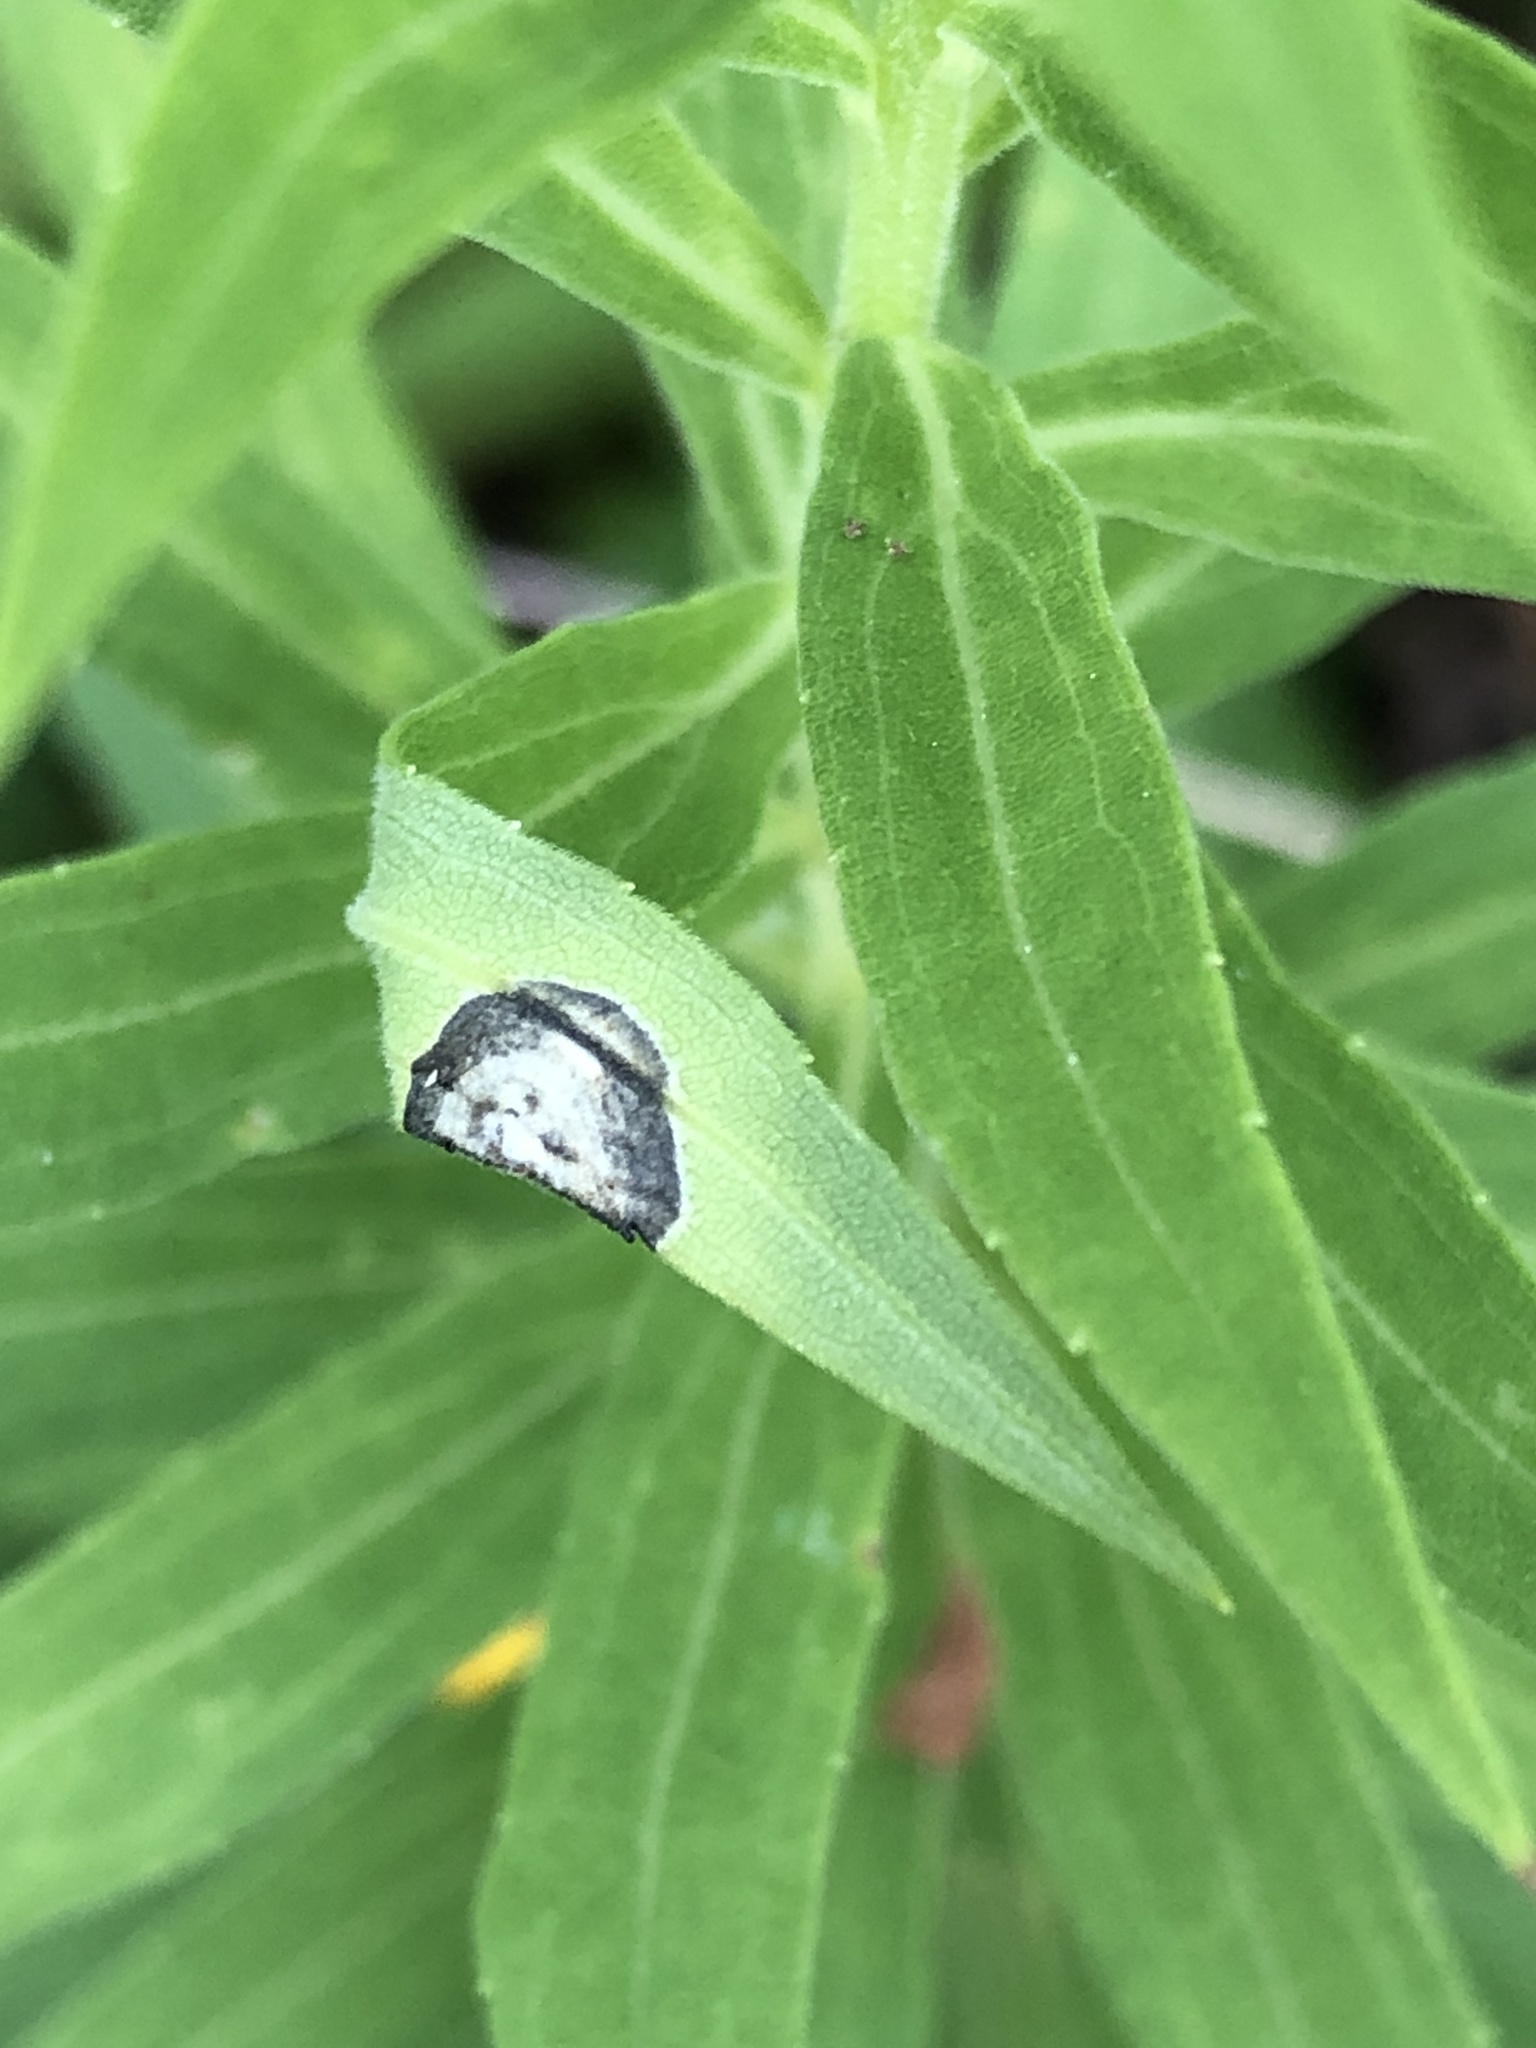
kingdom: Animalia
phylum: Arthropoda
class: Insecta
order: Diptera
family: Cecidomyiidae
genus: Asteromyia
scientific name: Asteromyia carbonifera
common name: Carbonifera goldenrod gall midge
